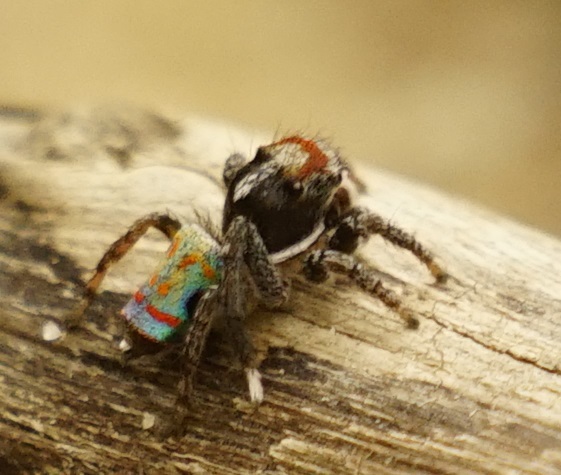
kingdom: Animalia
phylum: Arthropoda
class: Arachnida
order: Araneae
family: Salticidae
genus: Maratus
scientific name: Maratus amabilis
